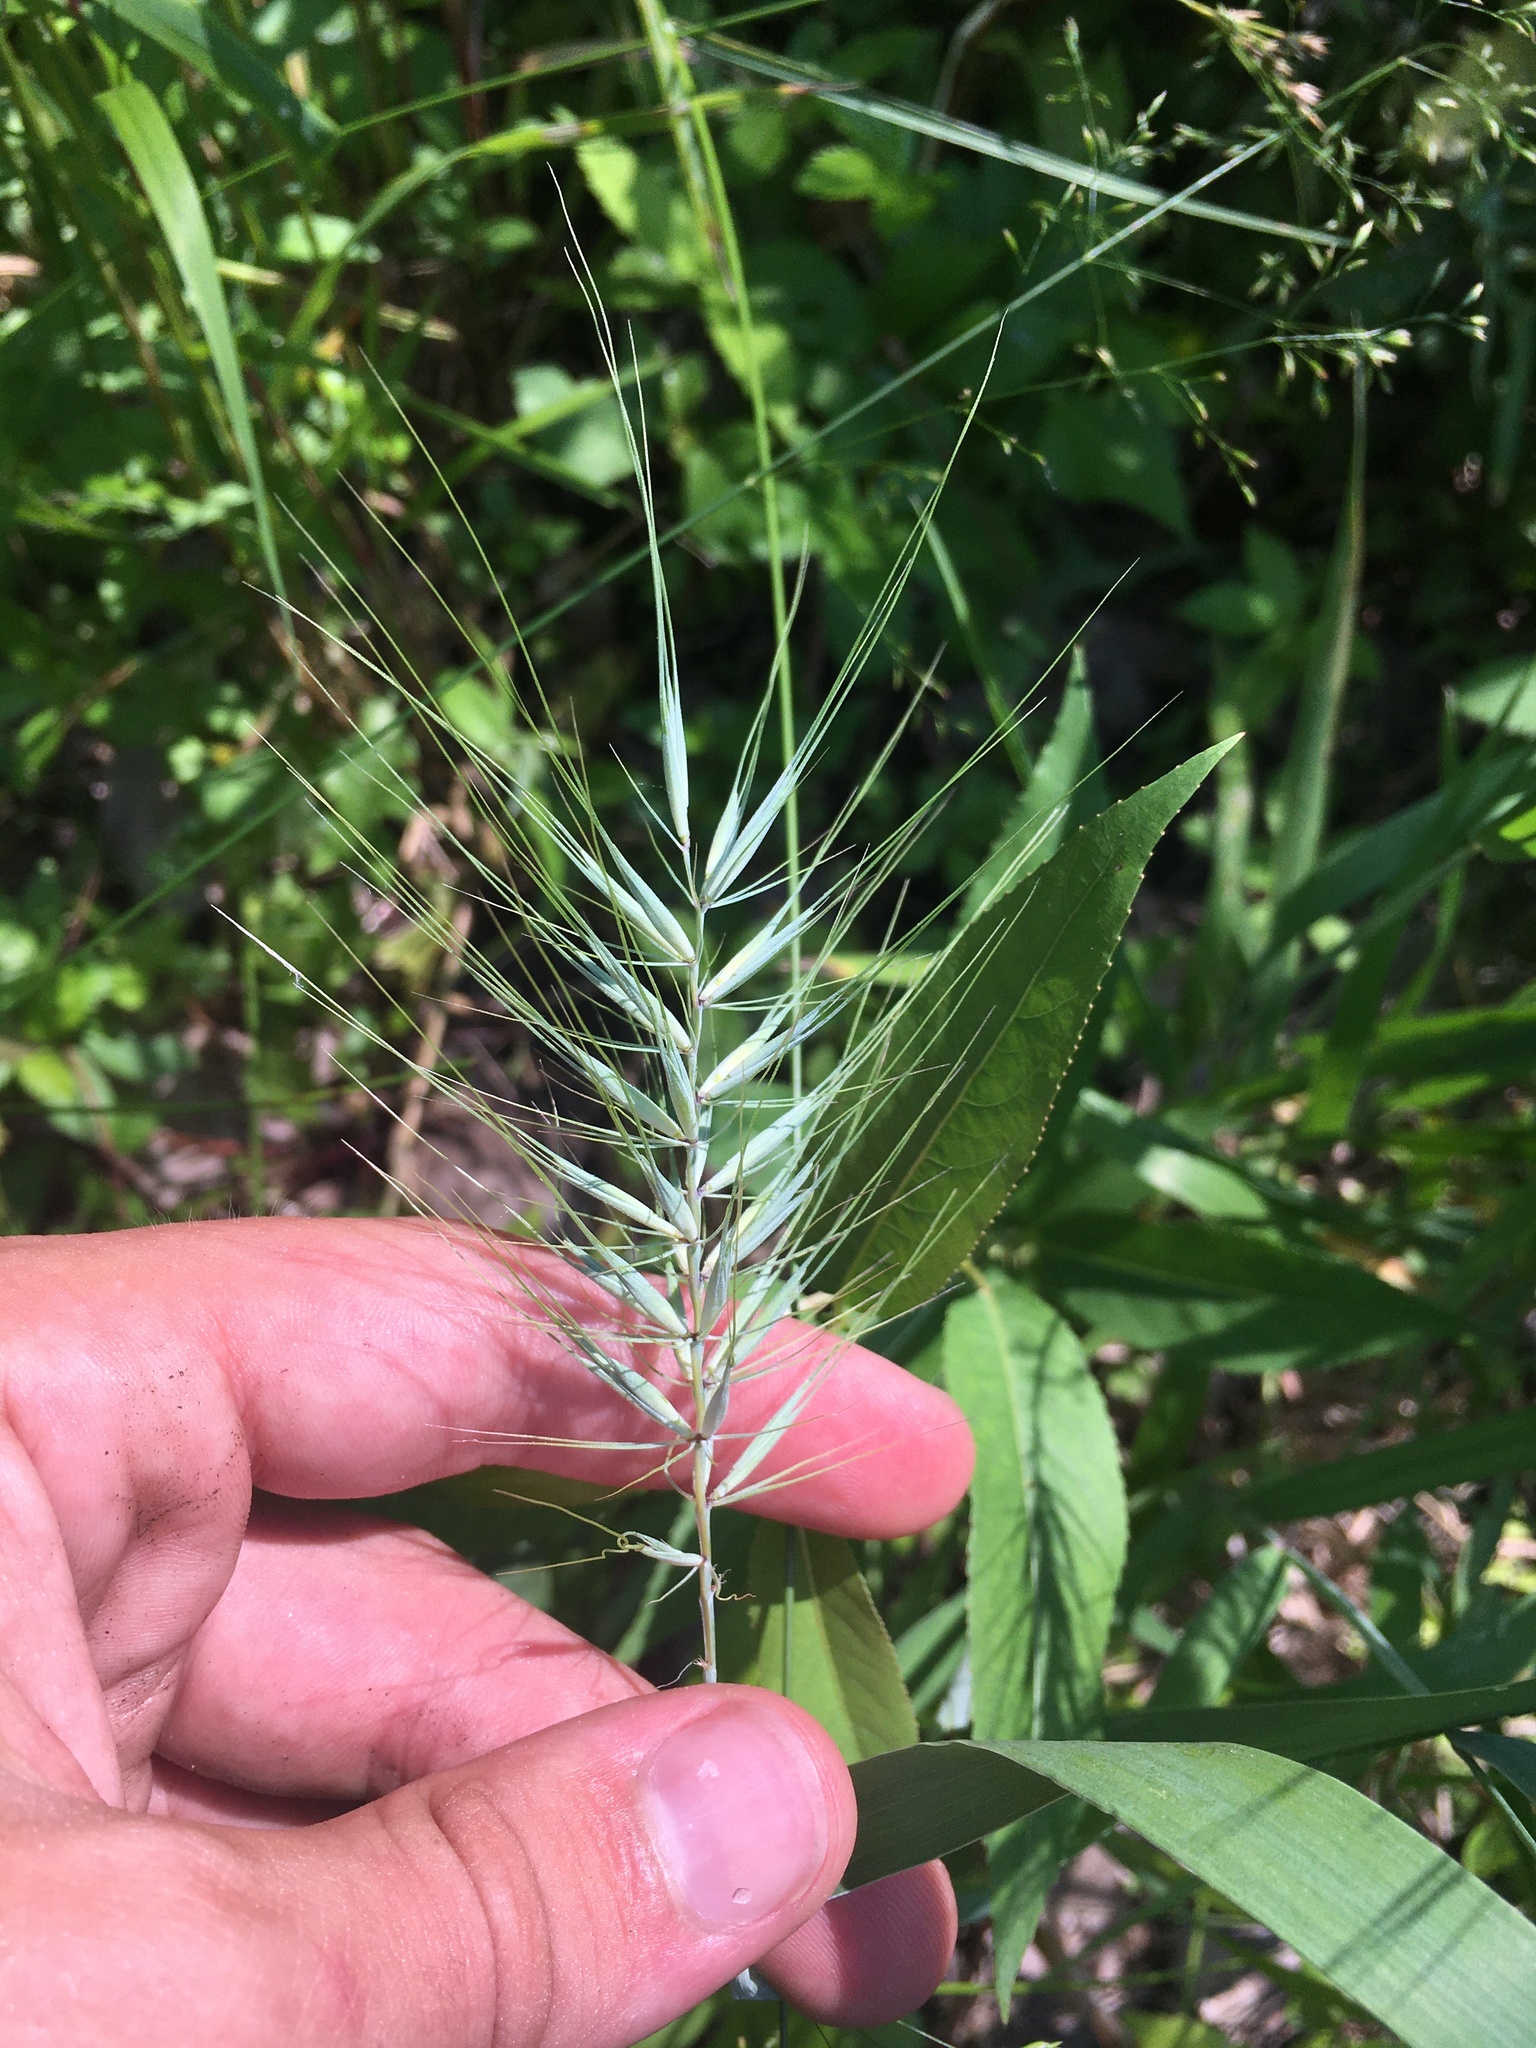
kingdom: Plantae
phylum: Tracheophyta
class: Liliopsida
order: Poales
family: Poaceae
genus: Elymus
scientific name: Elymus hystrix
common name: Bottlebrush grass
